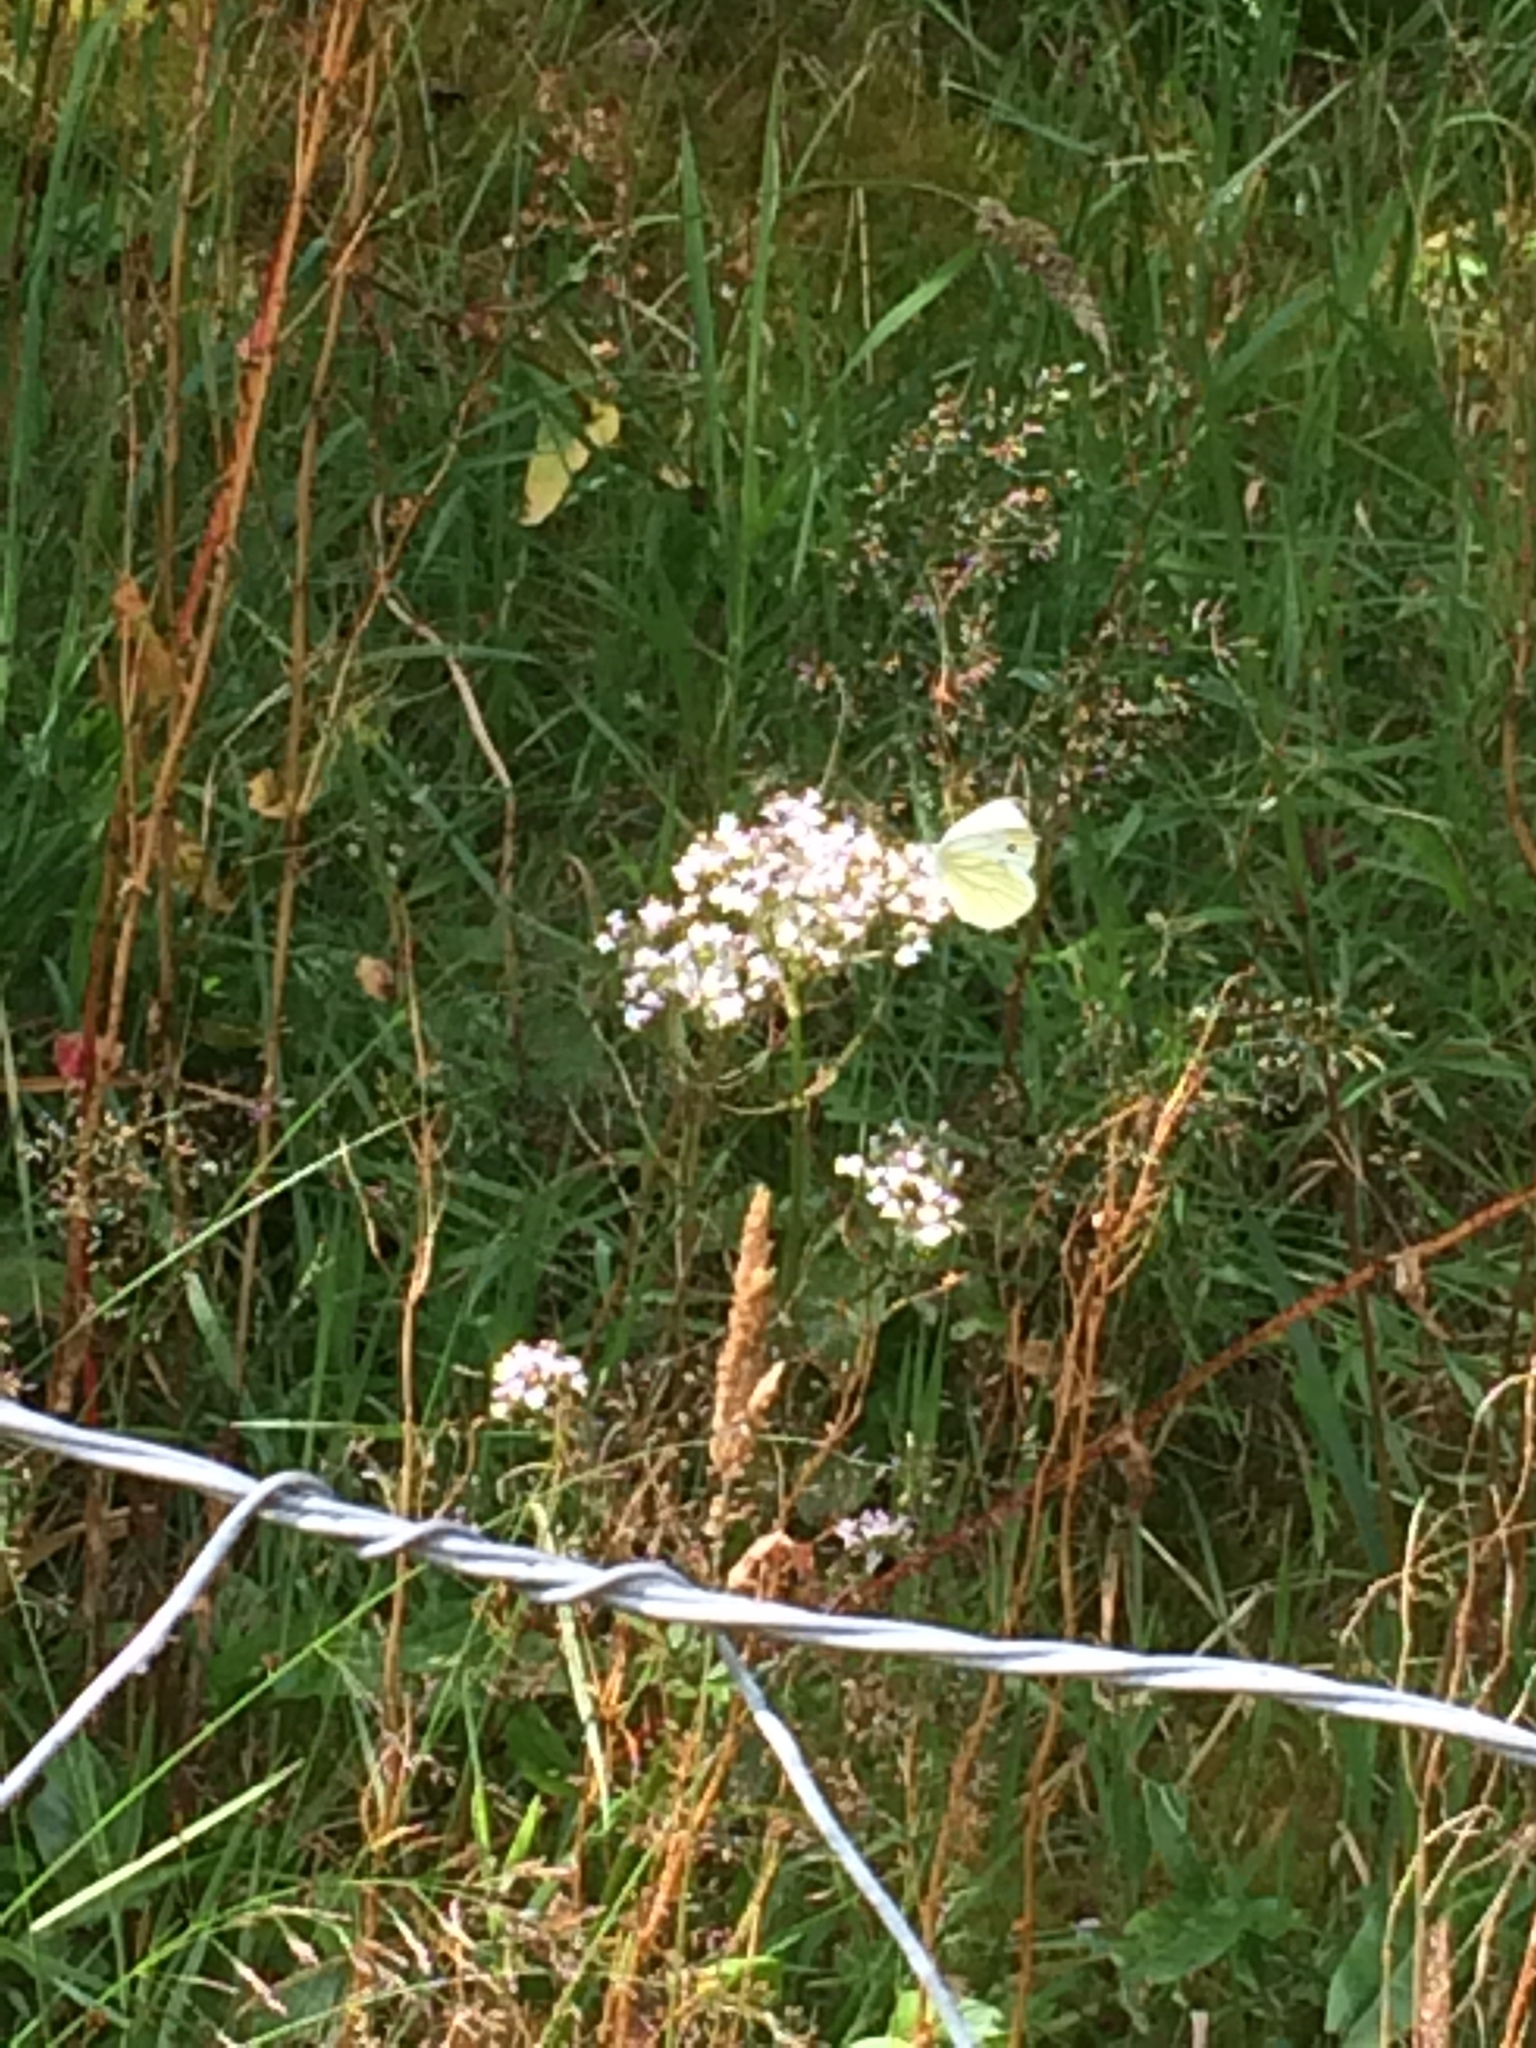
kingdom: Animalia
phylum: Arthropoda
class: Insecta
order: Lepidoptera
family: Pieridae
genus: Pieris
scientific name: Pieris napi
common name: Green-veined white
